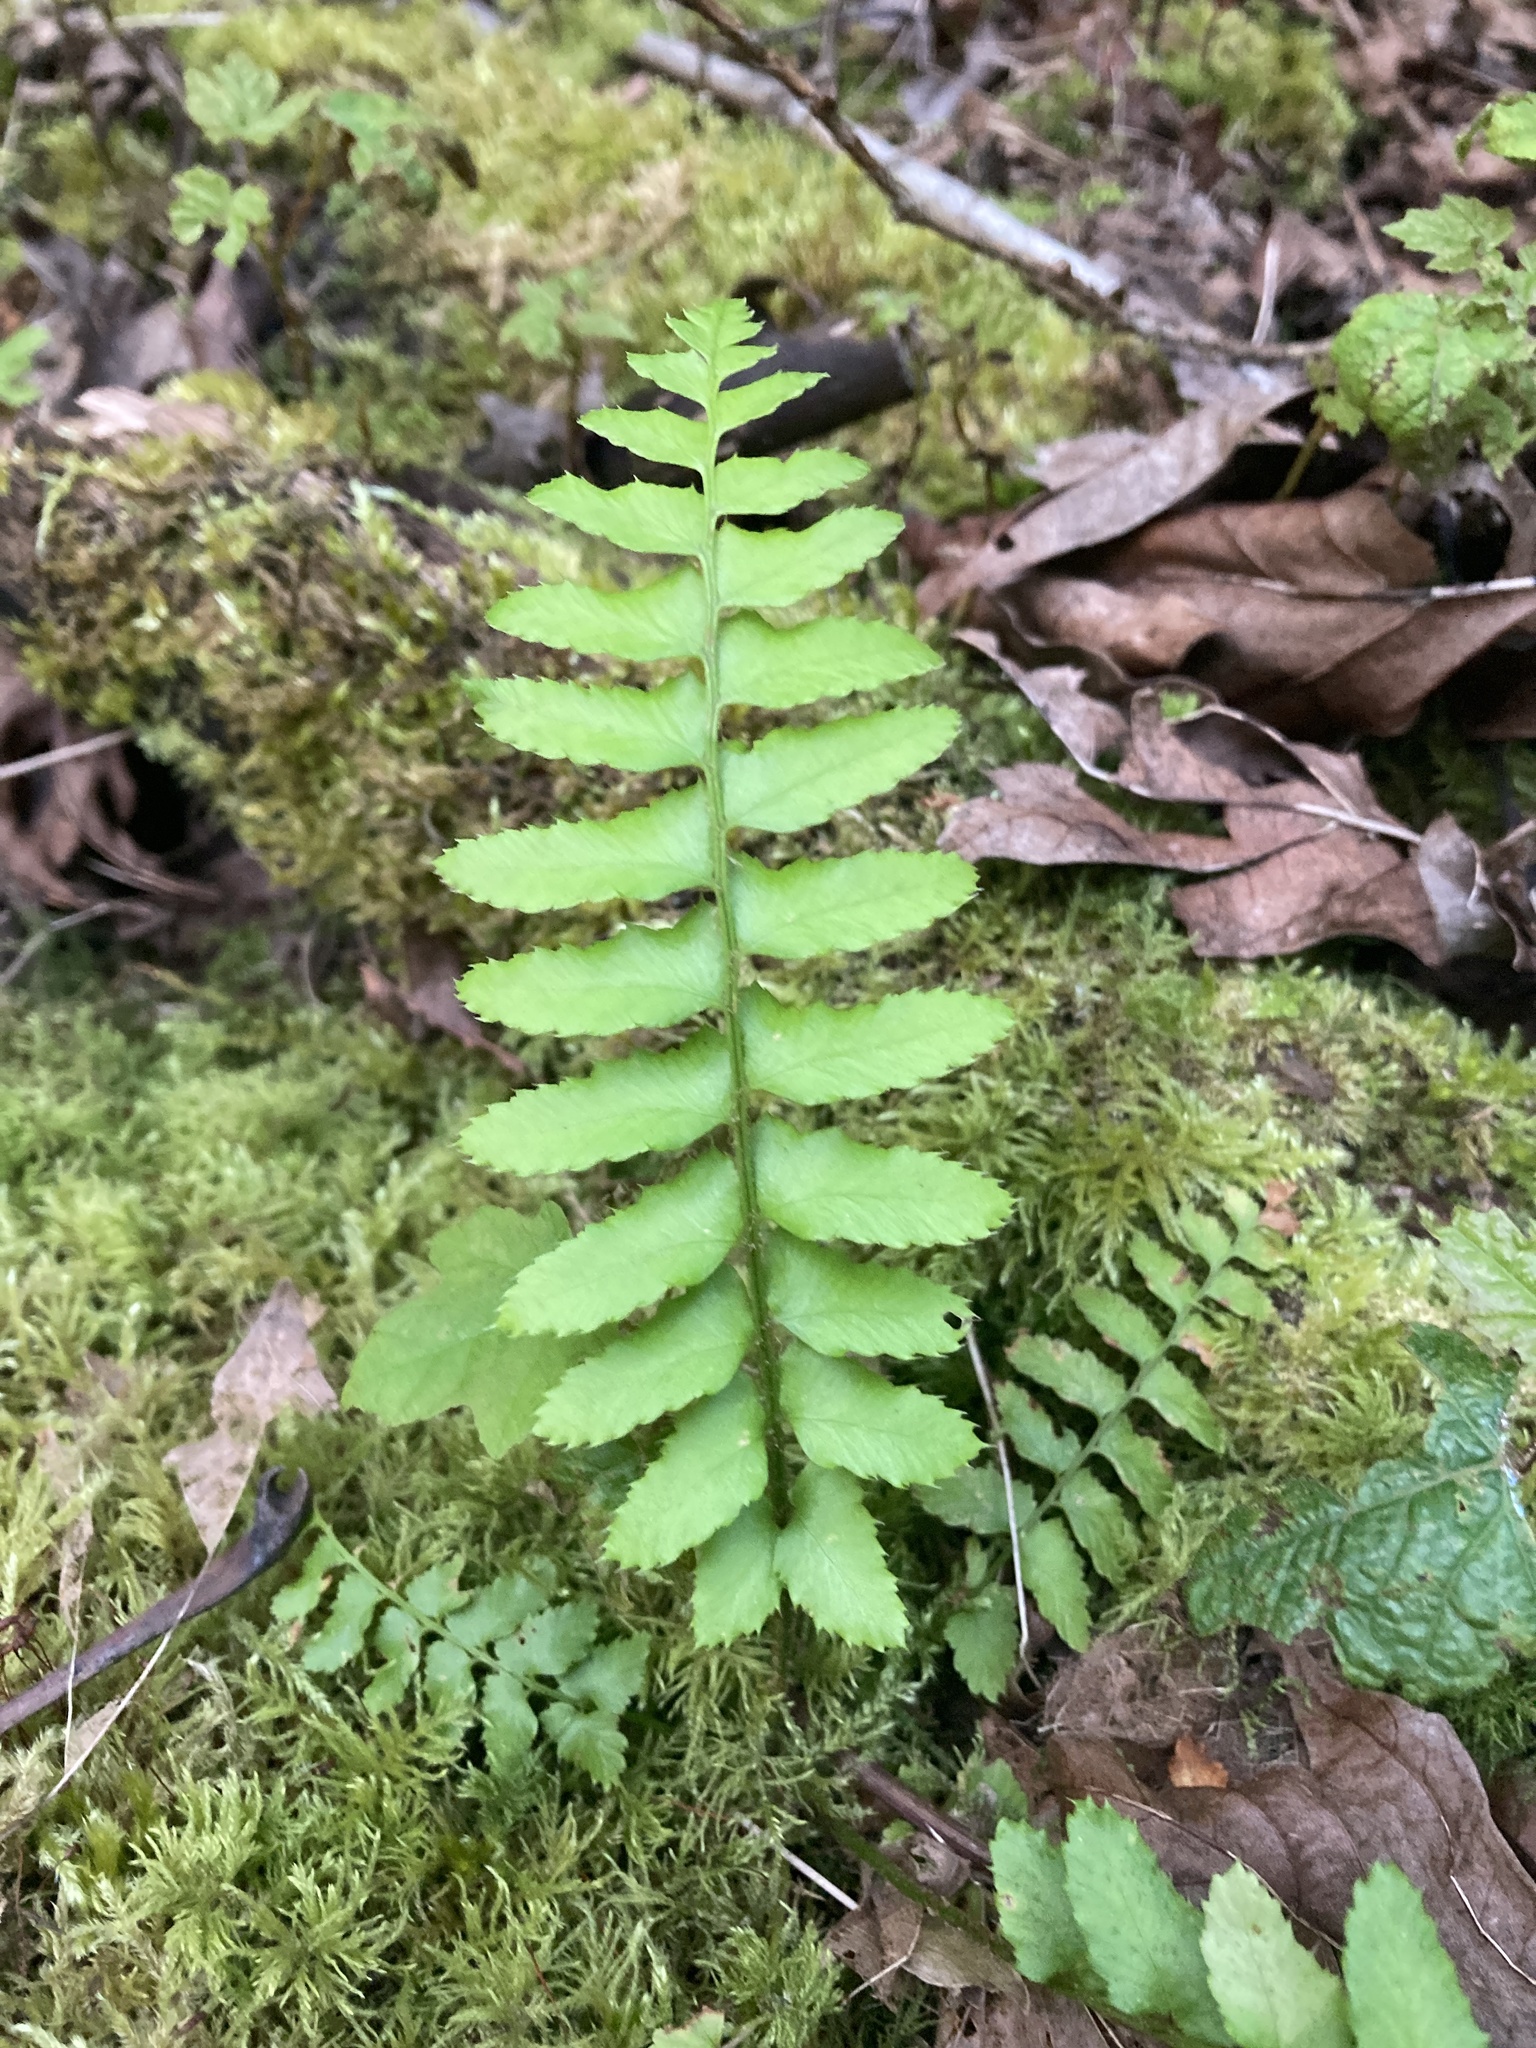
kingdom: Plantae
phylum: Tracheophyta
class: Polypodiopsida
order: Polypodiales
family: Dryopteridaceae
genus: Polystichum
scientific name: Polystichum munitum
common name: Western sword-fern
